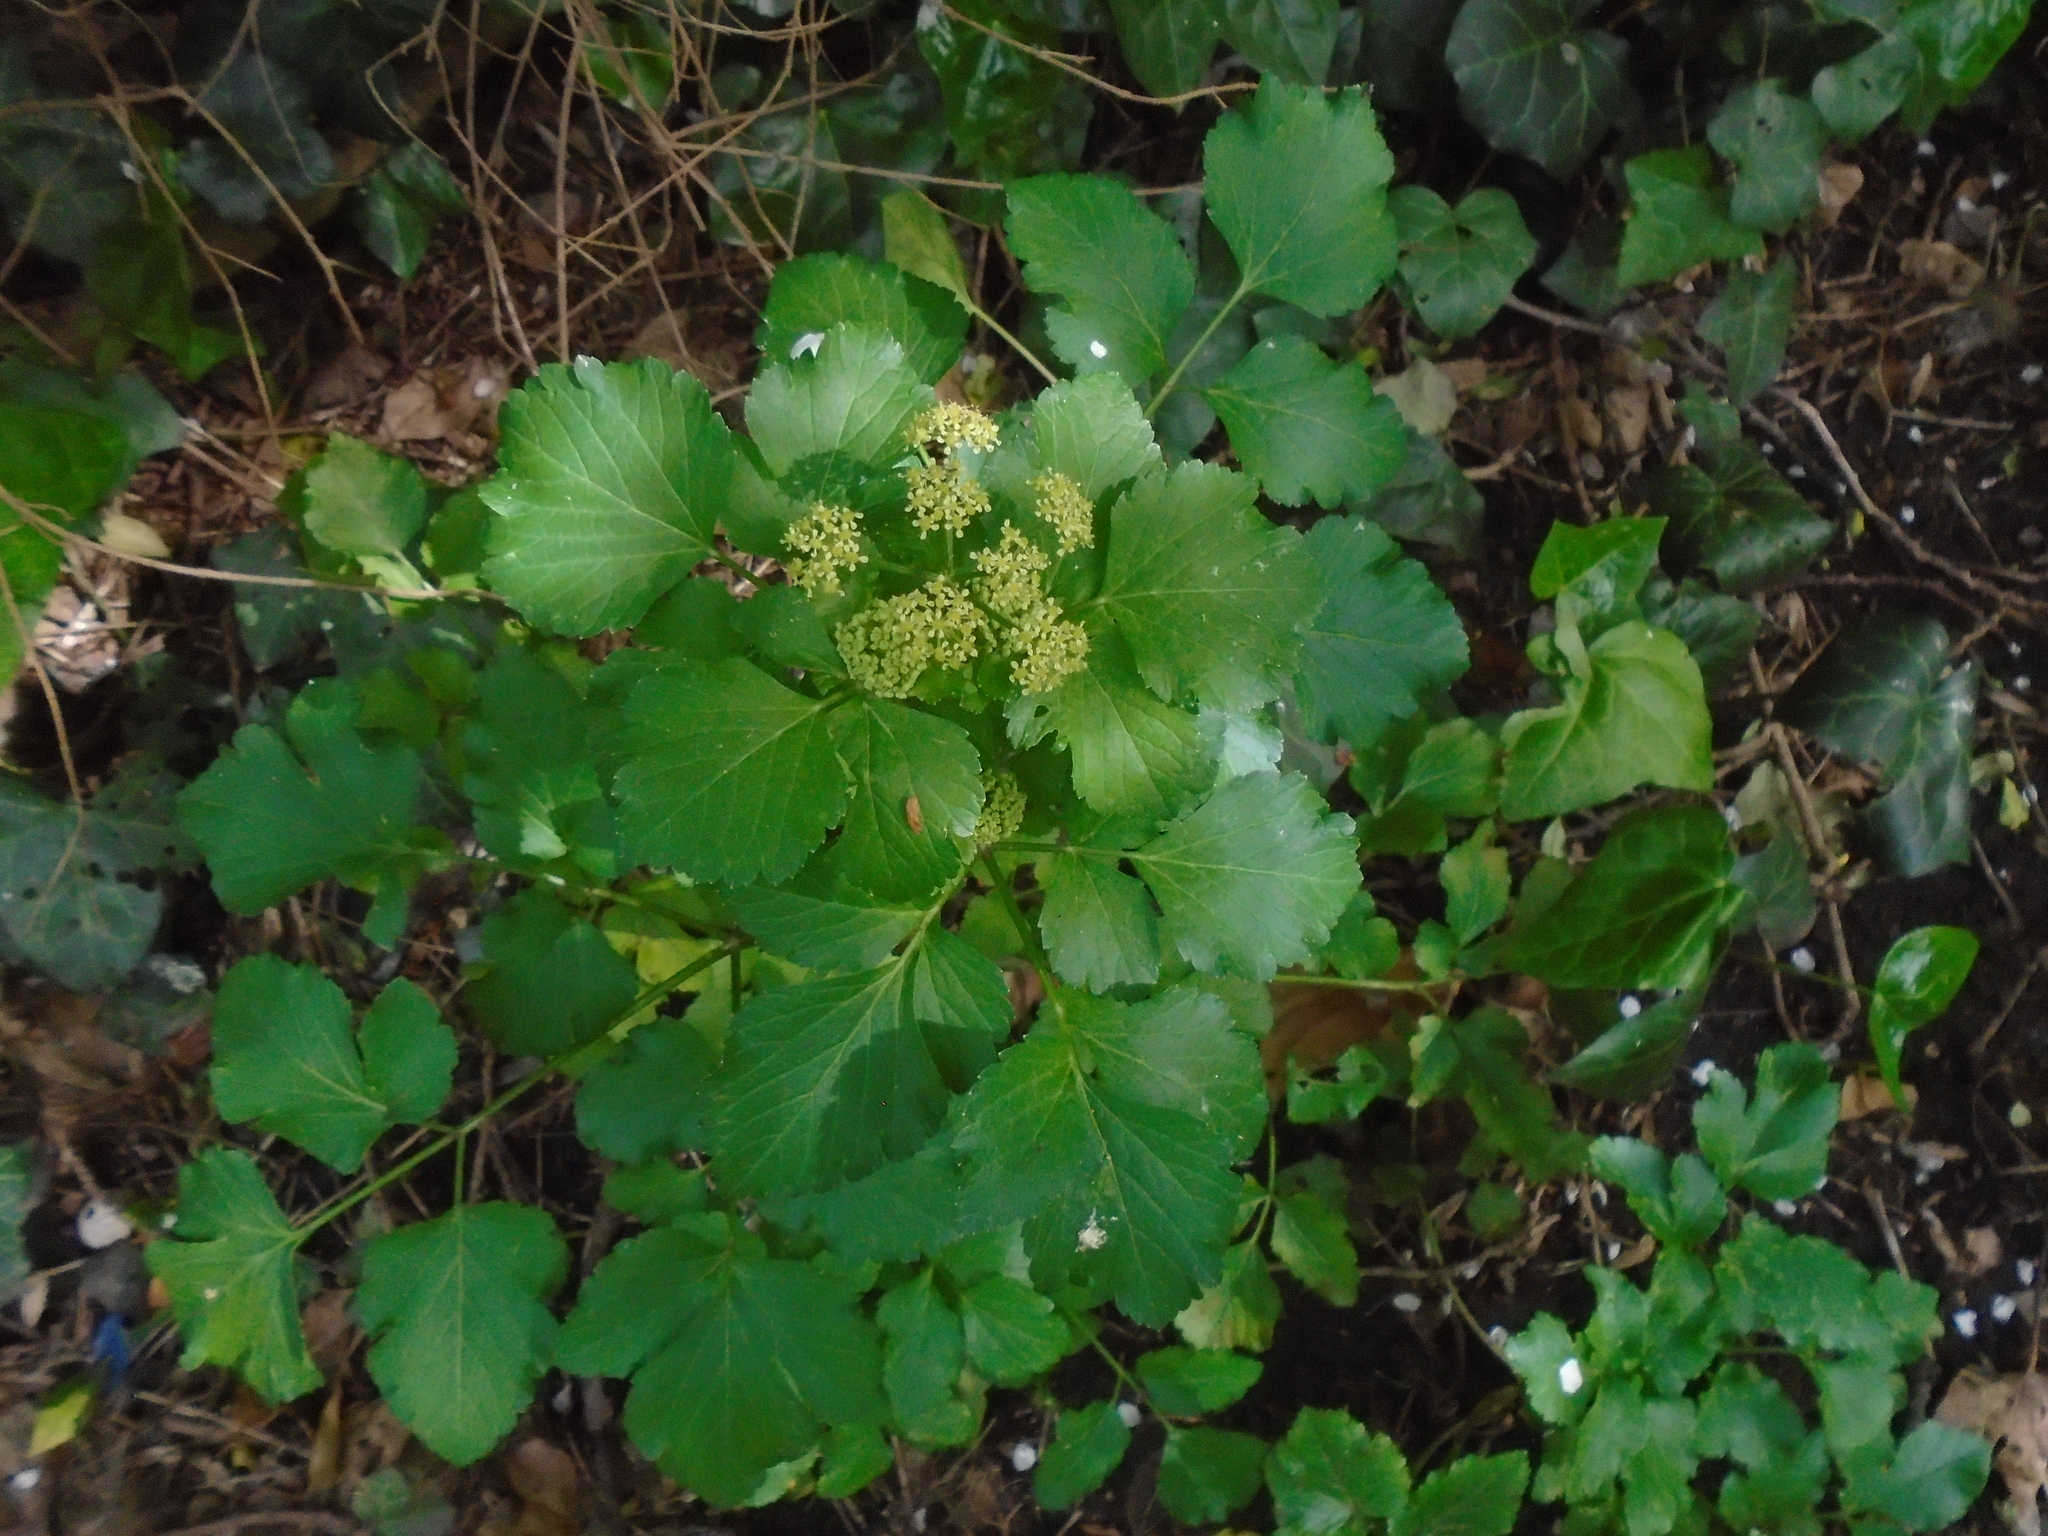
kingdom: Plantae
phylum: Tracheophyta
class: Magnoliopsida
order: Apiales
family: Apiaceae
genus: Smyrnium
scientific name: Smyrnium olusatrum
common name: Alexanders
